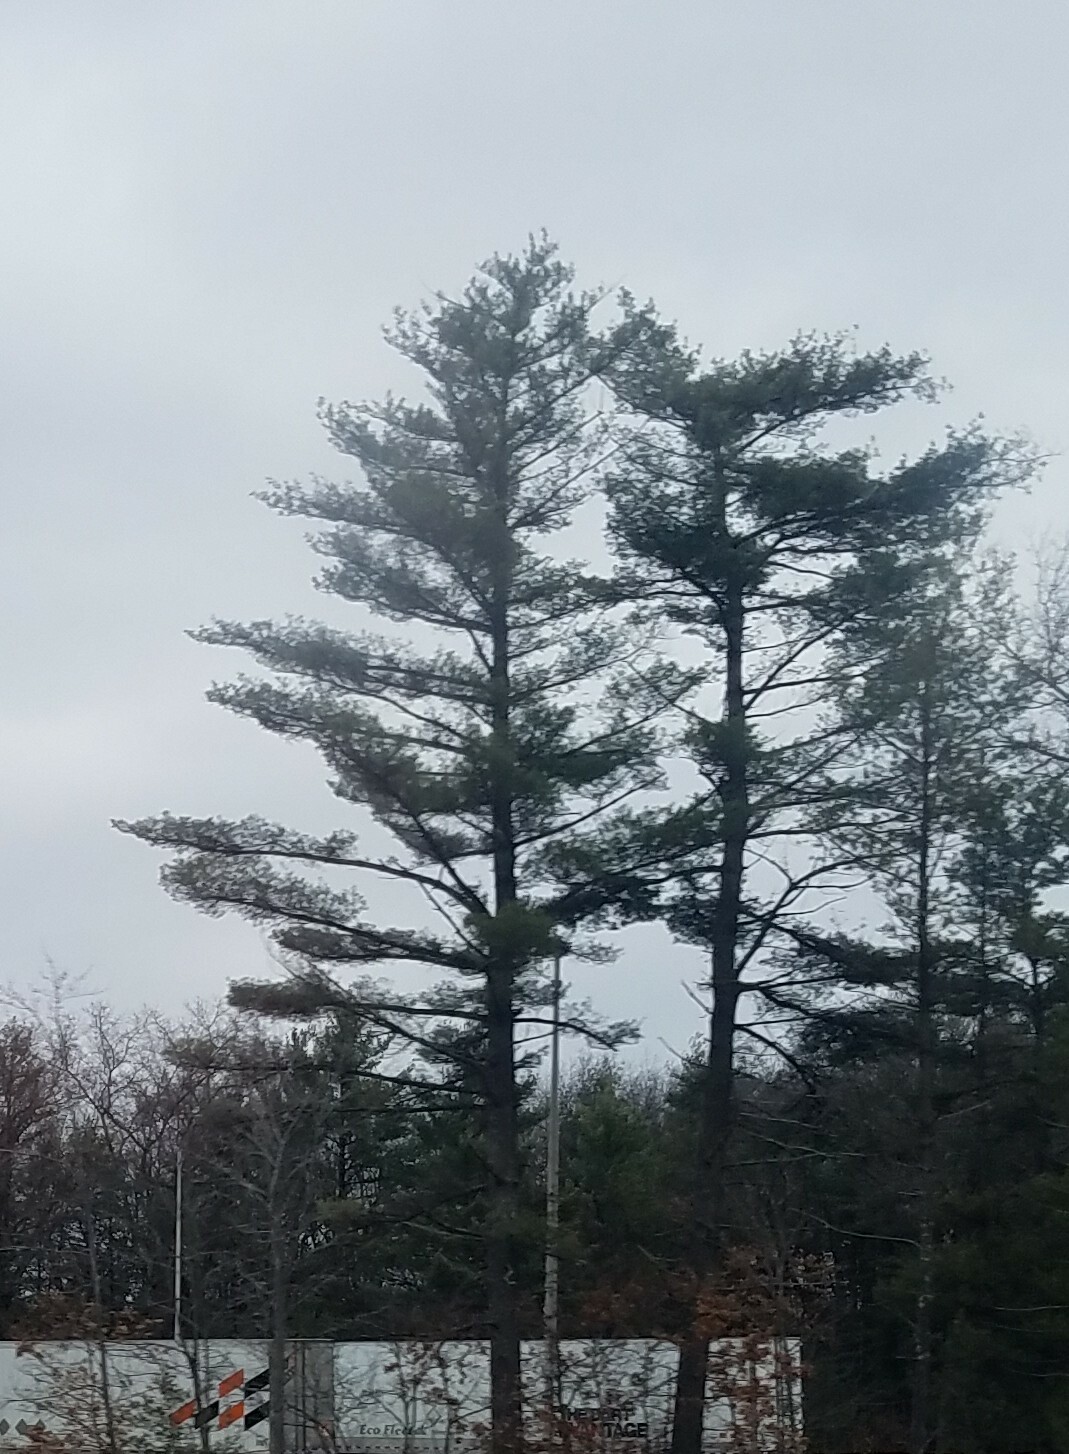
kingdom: Plantae
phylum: Tracheophyta
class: Pinopsida
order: Pinales
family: Pinaceae
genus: Pinus
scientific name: Pinus strobus
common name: Weymouth pine
